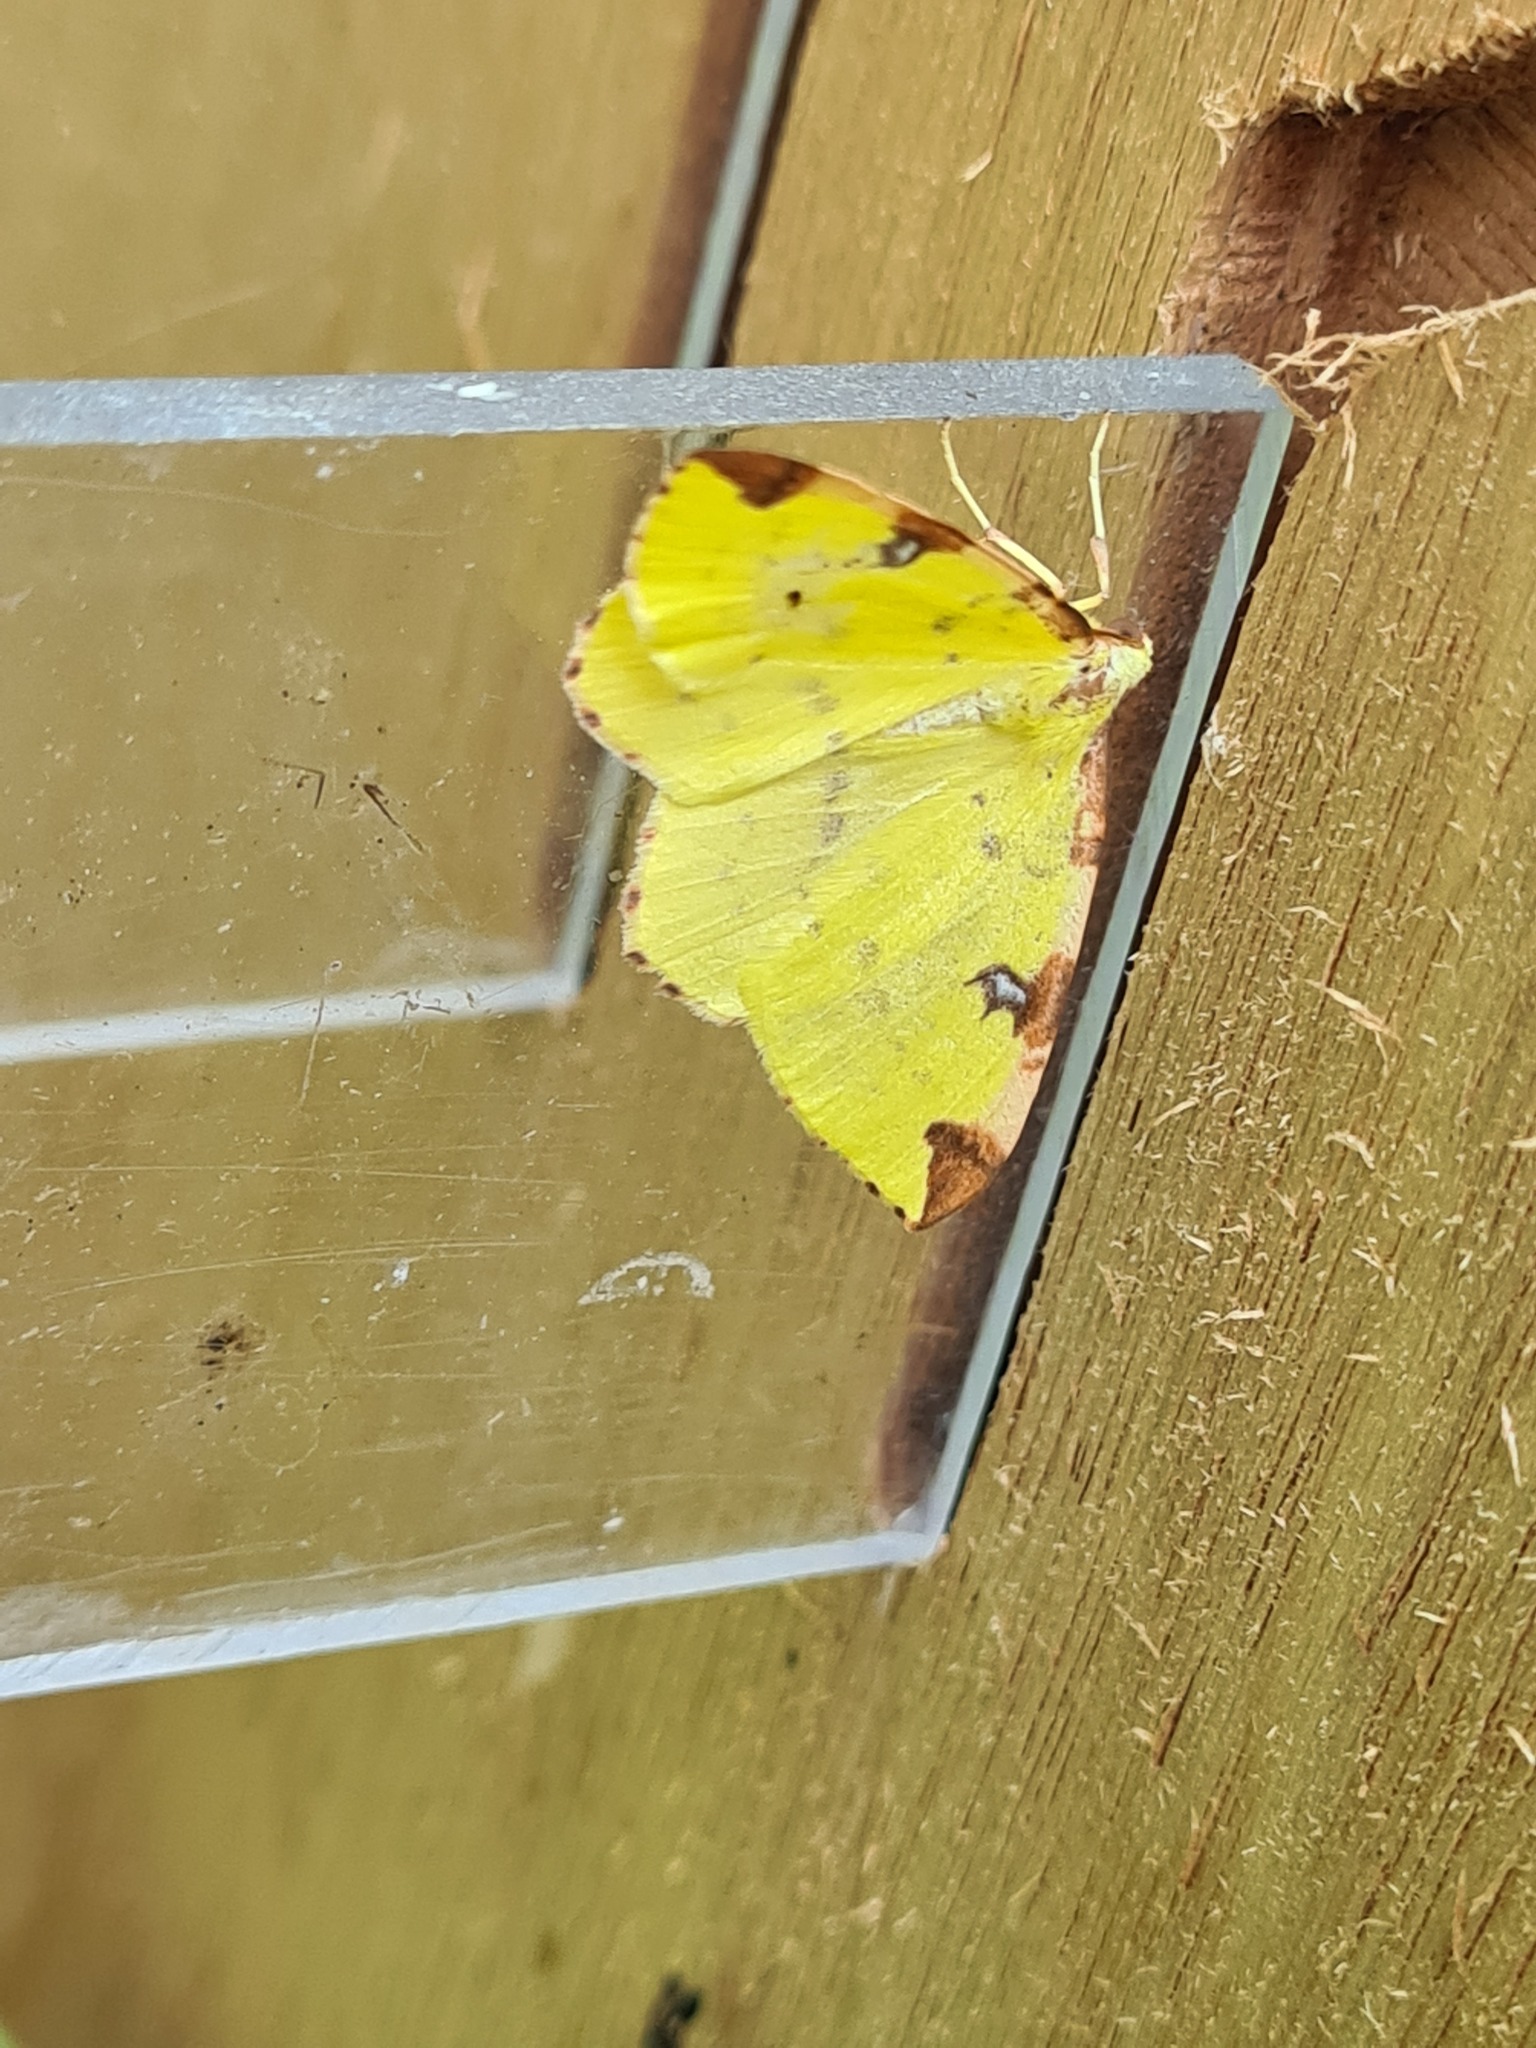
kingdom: Animalia
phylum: Arthropoda
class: Insecta
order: Lepidoptera
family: Geometridae
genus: Opisthograptis
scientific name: Opisthograptis luteolata
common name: Brimstone moth
